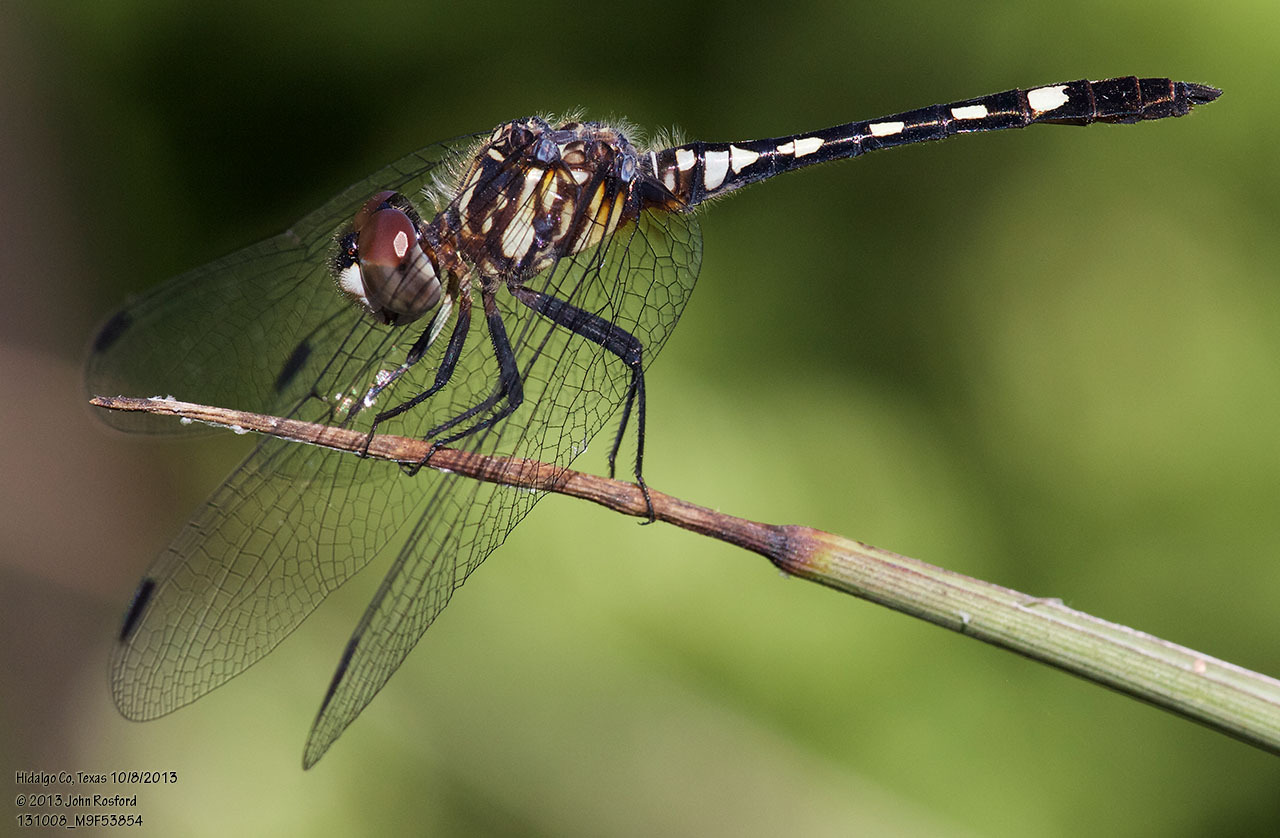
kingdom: Animalia
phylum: Arthropoda
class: Insecta
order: Odonata
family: Libellulidae
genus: Micrathyria
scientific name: Micrathyria hagenii
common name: Thornbush dasher
